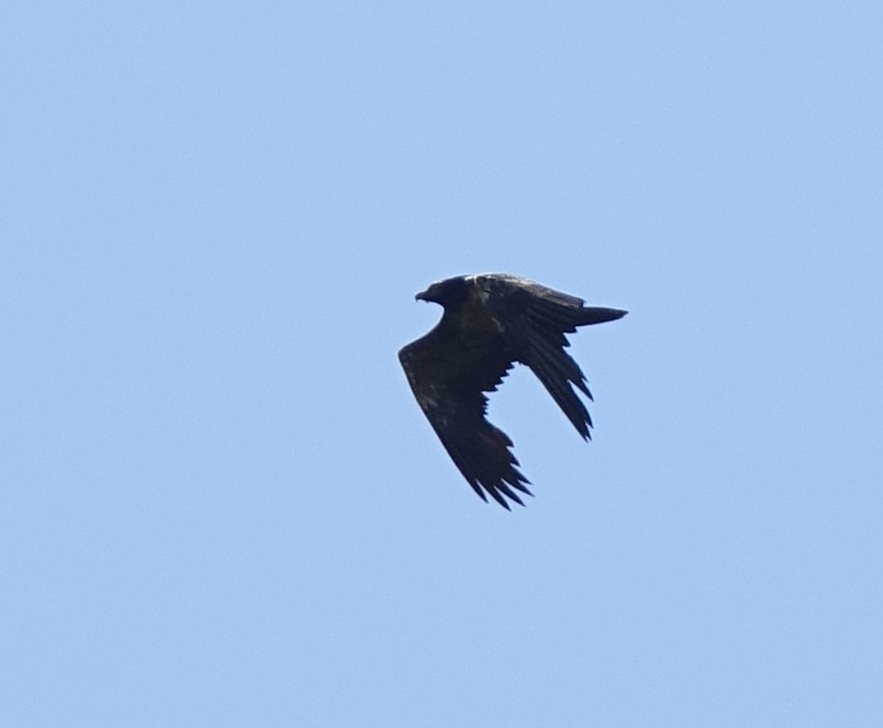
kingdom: Animalia
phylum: Chordata
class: Aves
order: Accipitriformes
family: Accipitridae
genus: Gypaetus
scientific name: Gypaetus barbatus
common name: Bearded vulture
